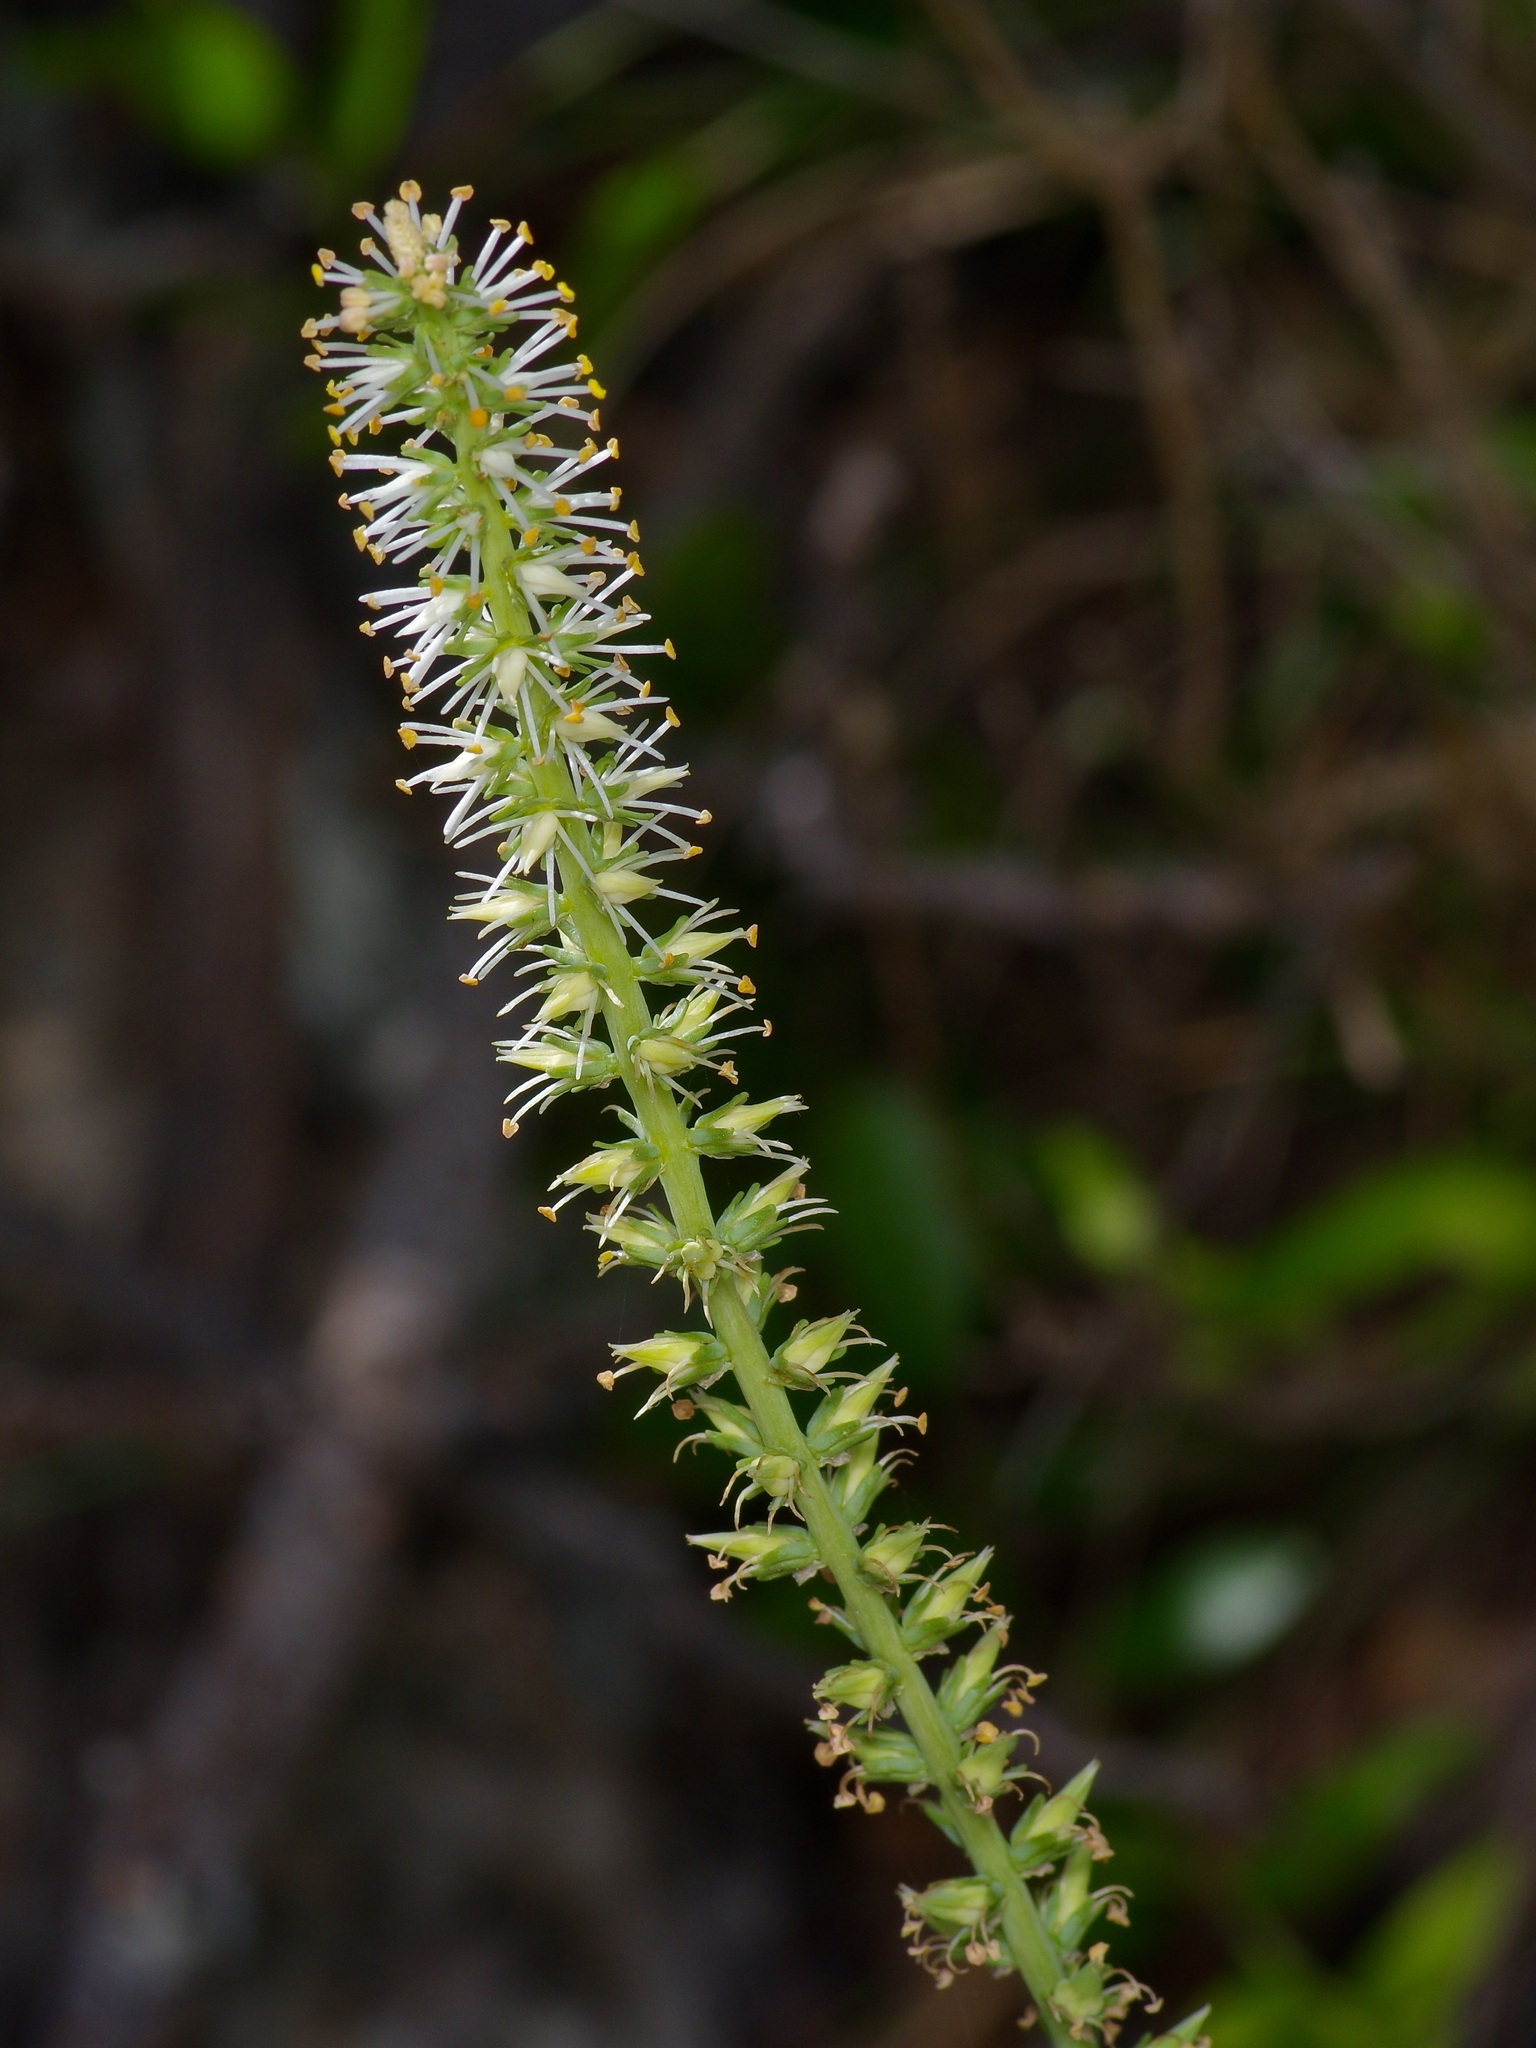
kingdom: Plantae
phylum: Tracheophyta
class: Liliopsida
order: Liliales
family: Melanthiaceae
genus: Schoenocaulon
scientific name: Schoenocaulon texanum
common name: Texas feather-shank
